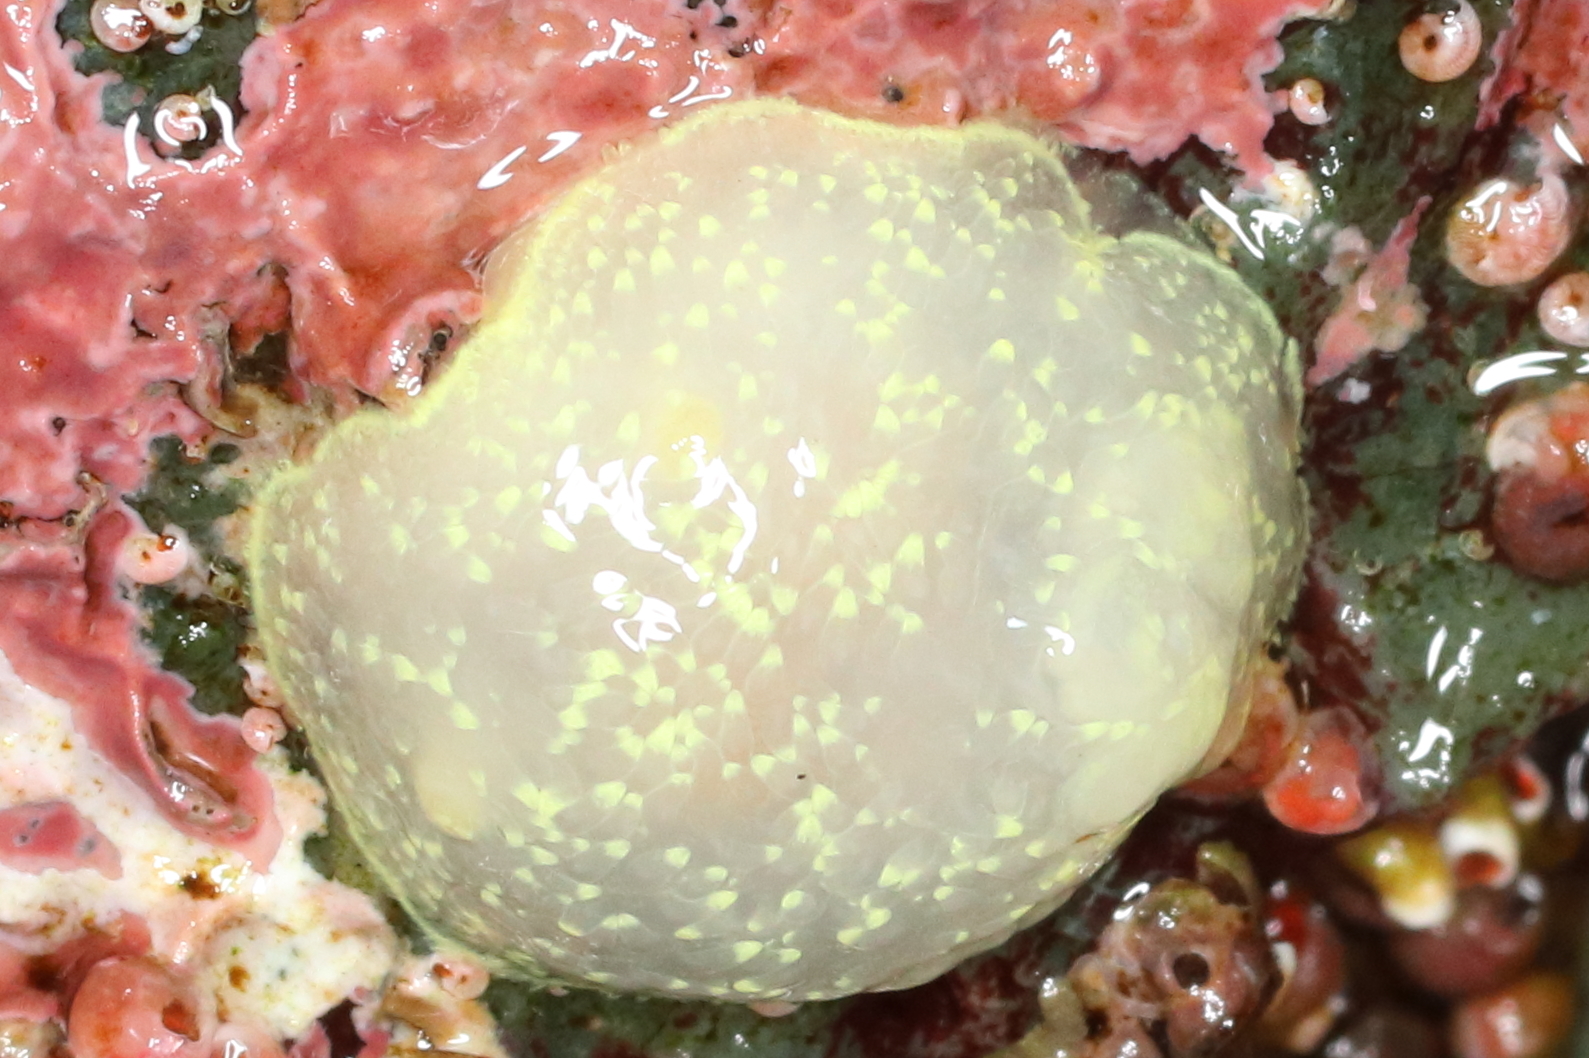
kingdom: Animalia
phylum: Mollusca
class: Gastropoda
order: Nudibranchia
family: Onchidorididae
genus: Acanthodoris
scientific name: Acanthodoris hudsoni
